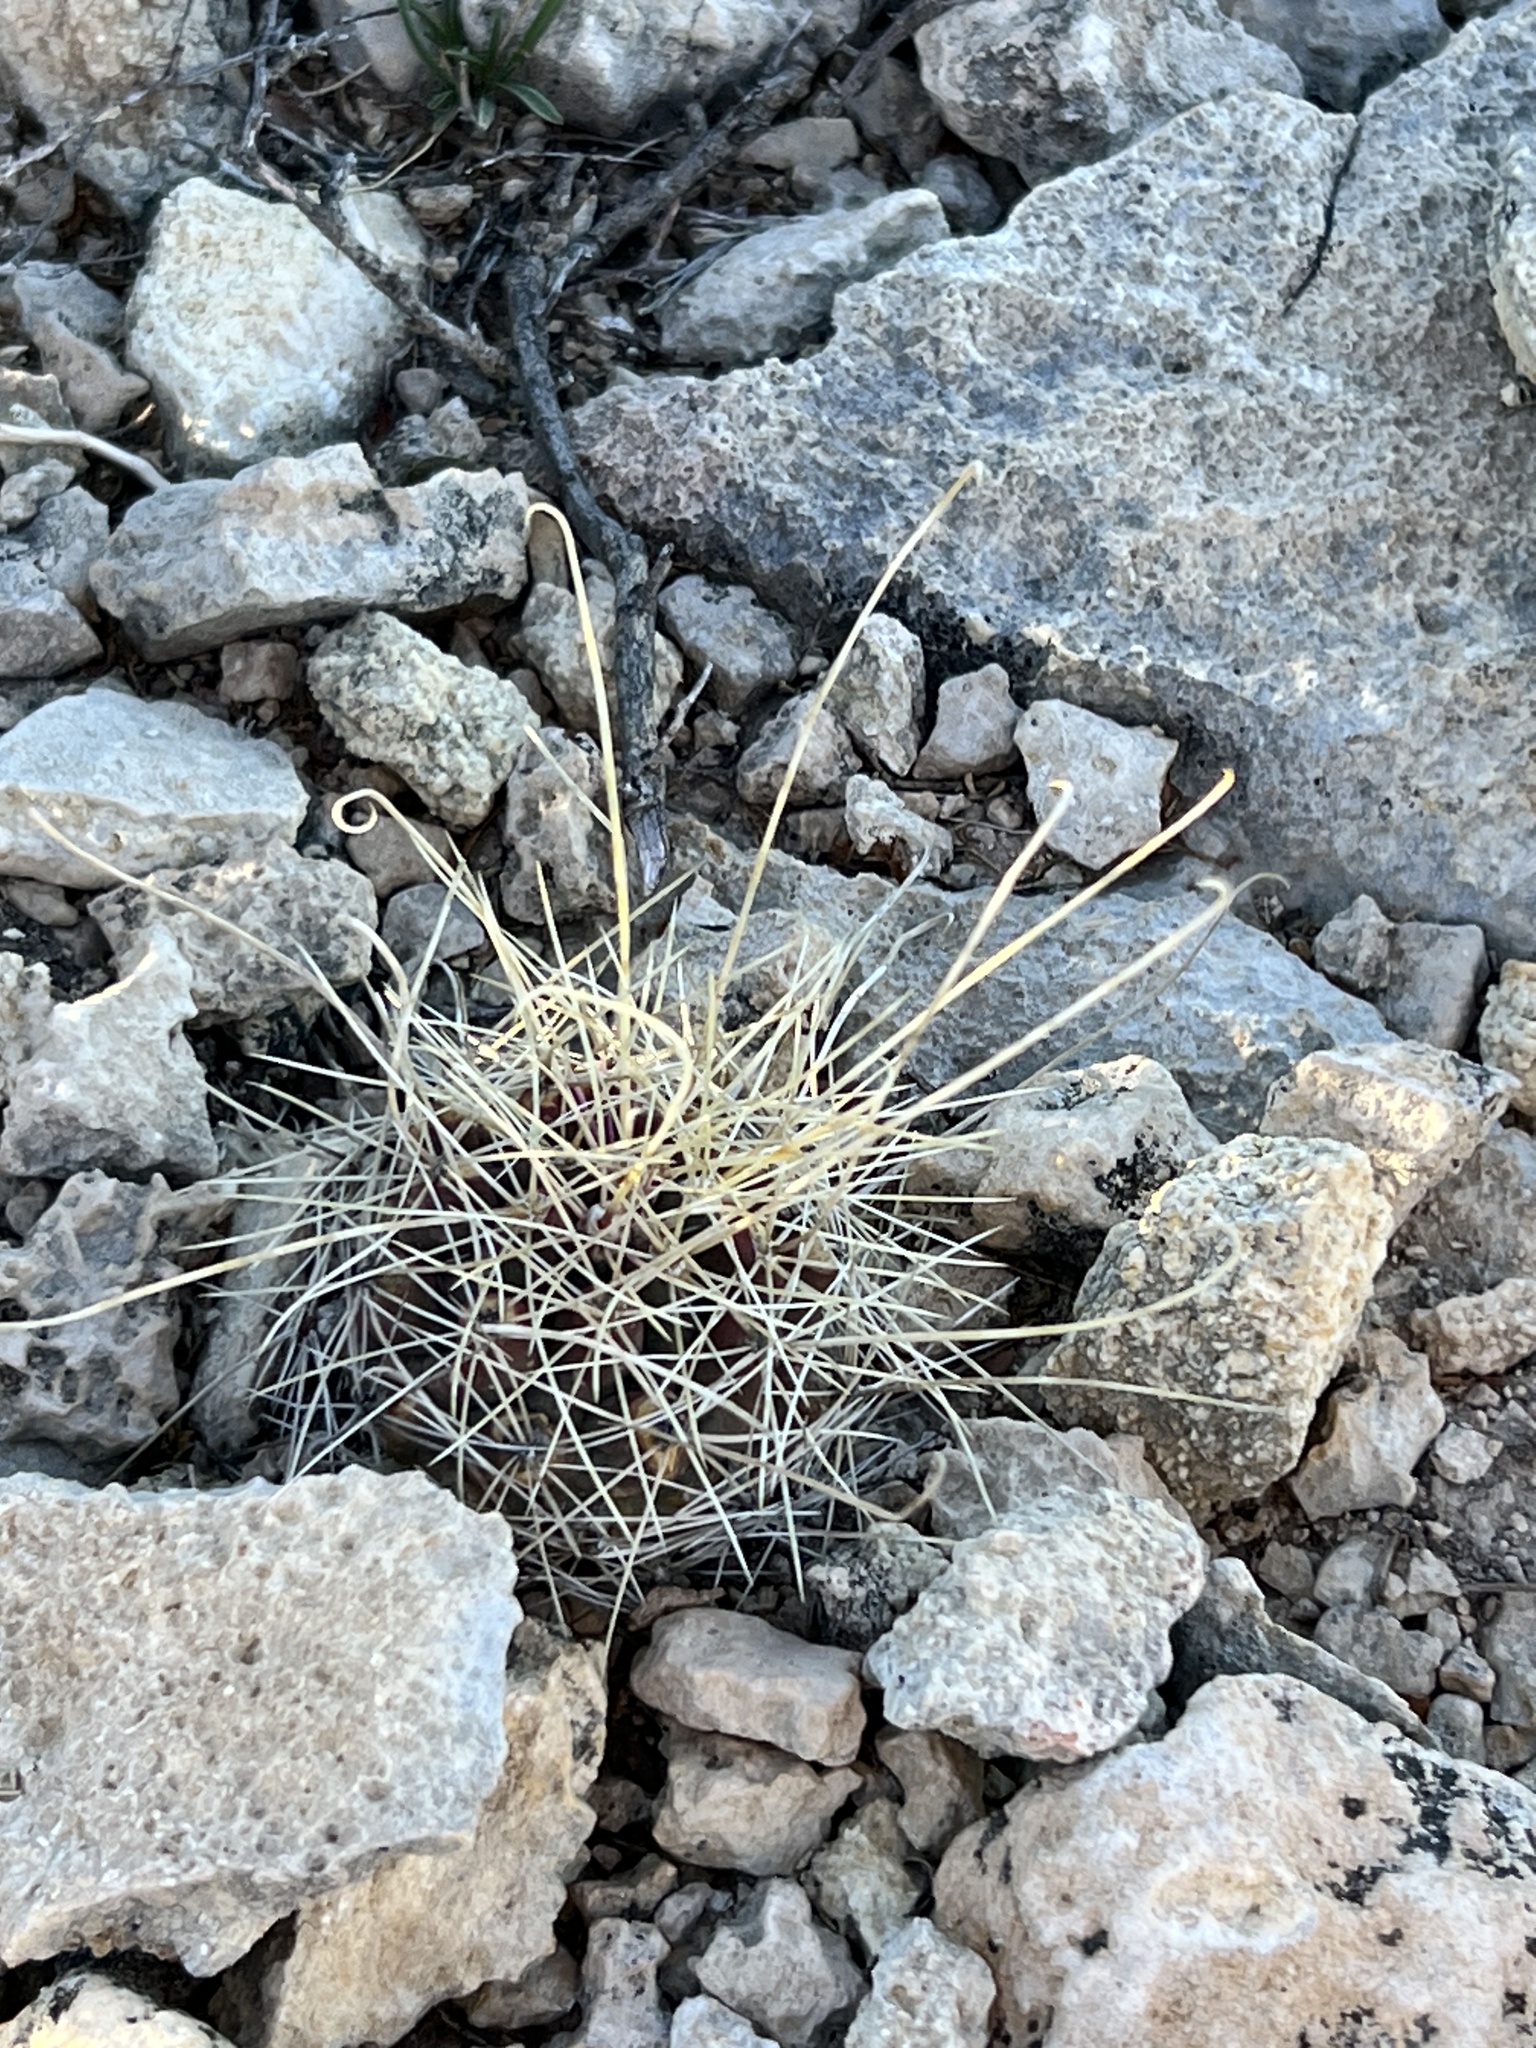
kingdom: Plantae
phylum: Tracheophyta
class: Magnoliopsida
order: Caryophyllales
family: Cactaceae
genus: Ferocactus
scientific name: Ferocactus uncinatus
